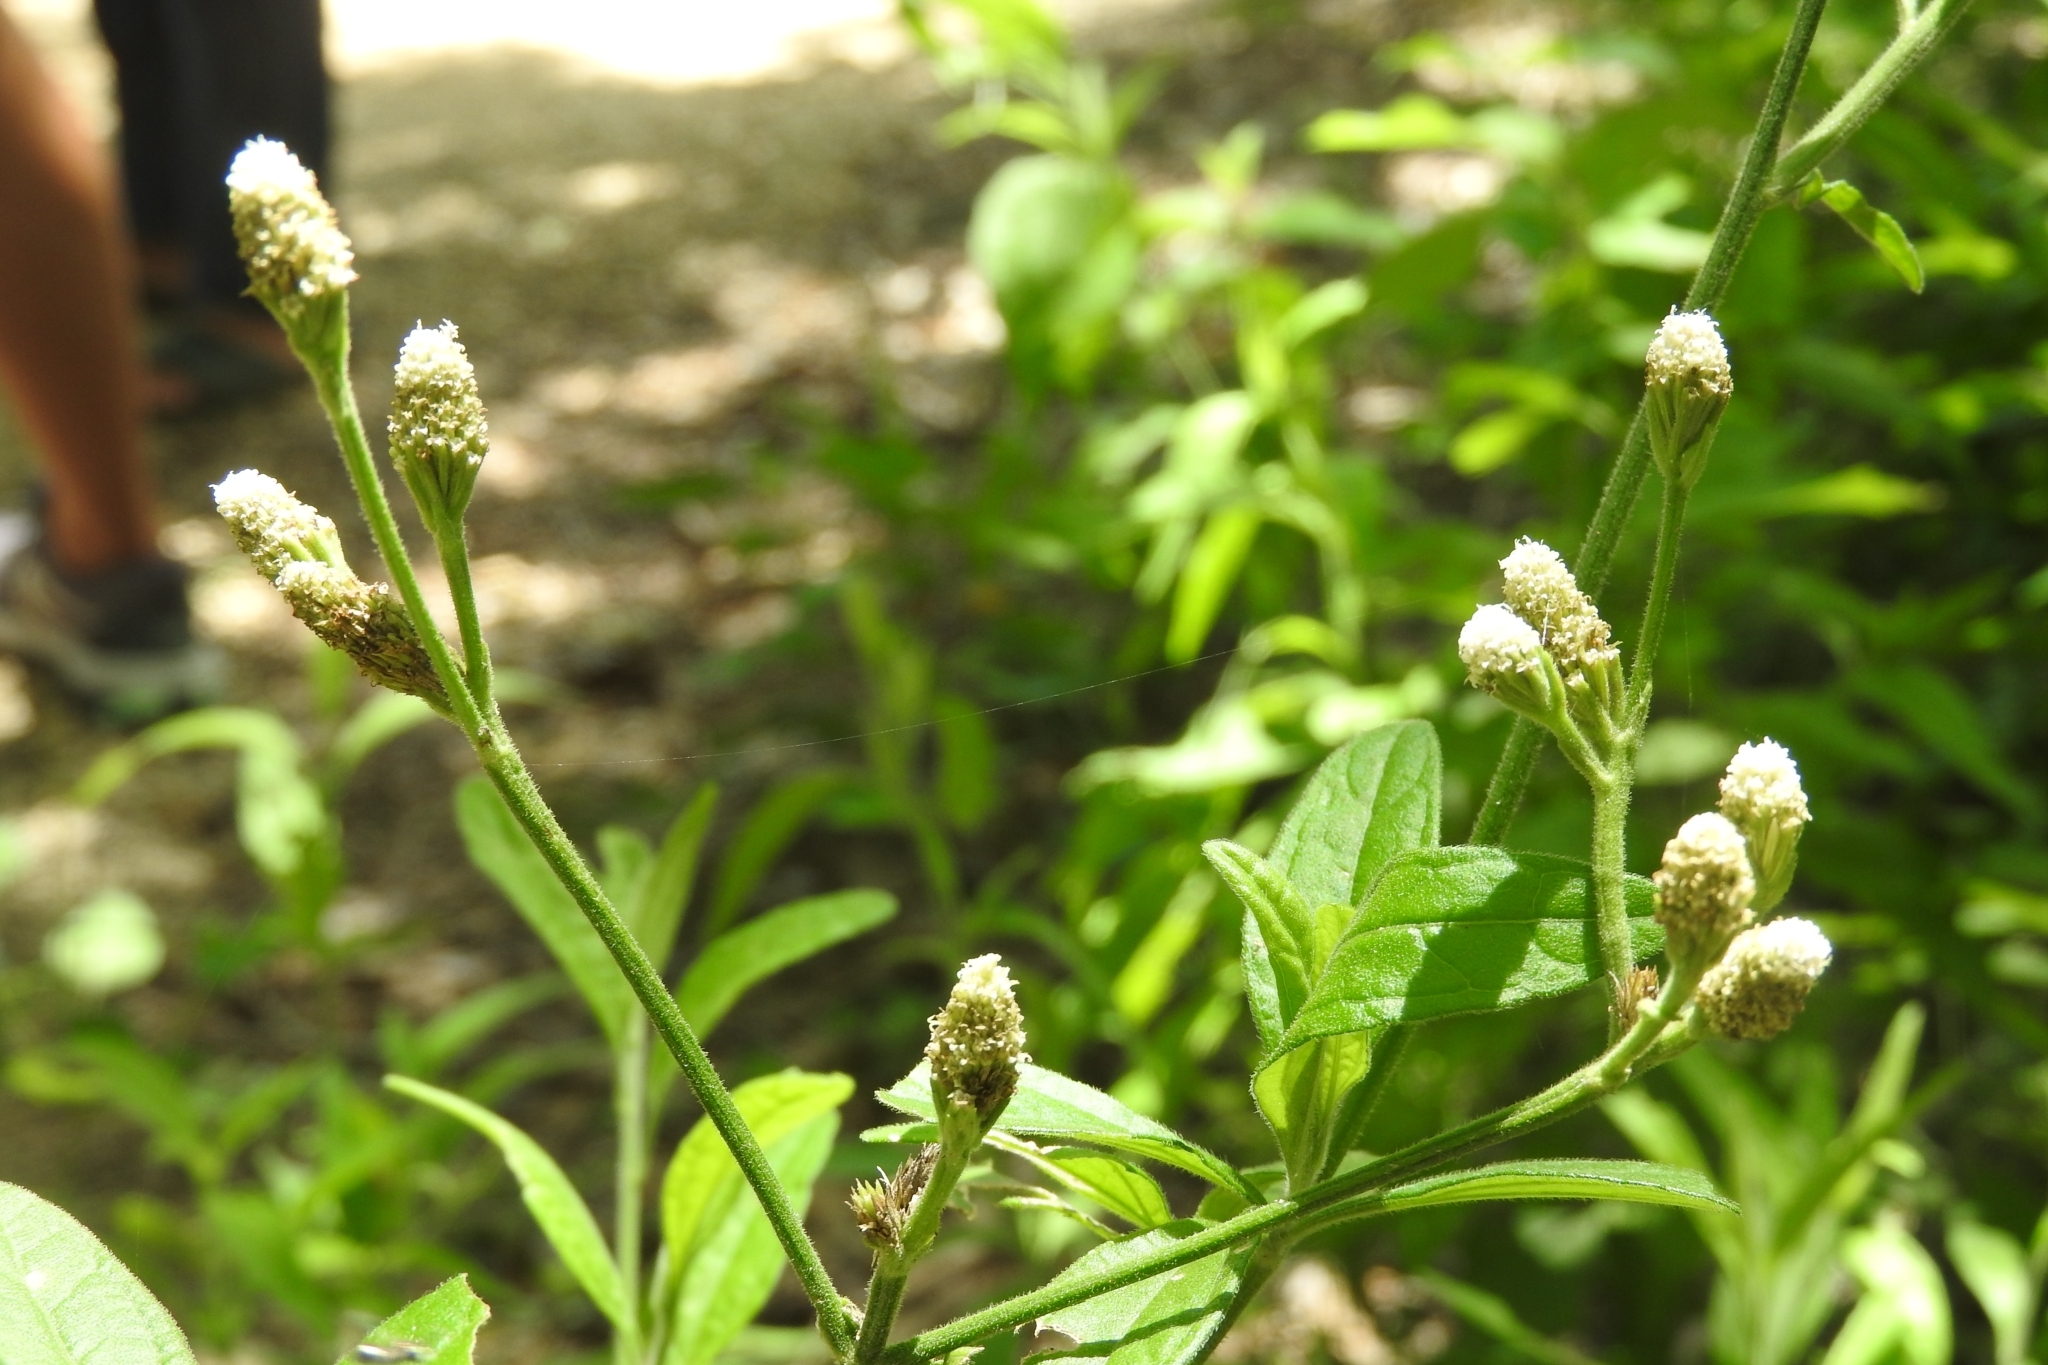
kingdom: Plantae
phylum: Tracheophyta
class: Magnoliopsida
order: Asterales
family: Asteraceae
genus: Isocarpha
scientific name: Isocarpha oppositifolia
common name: Rio grande pearlhead
